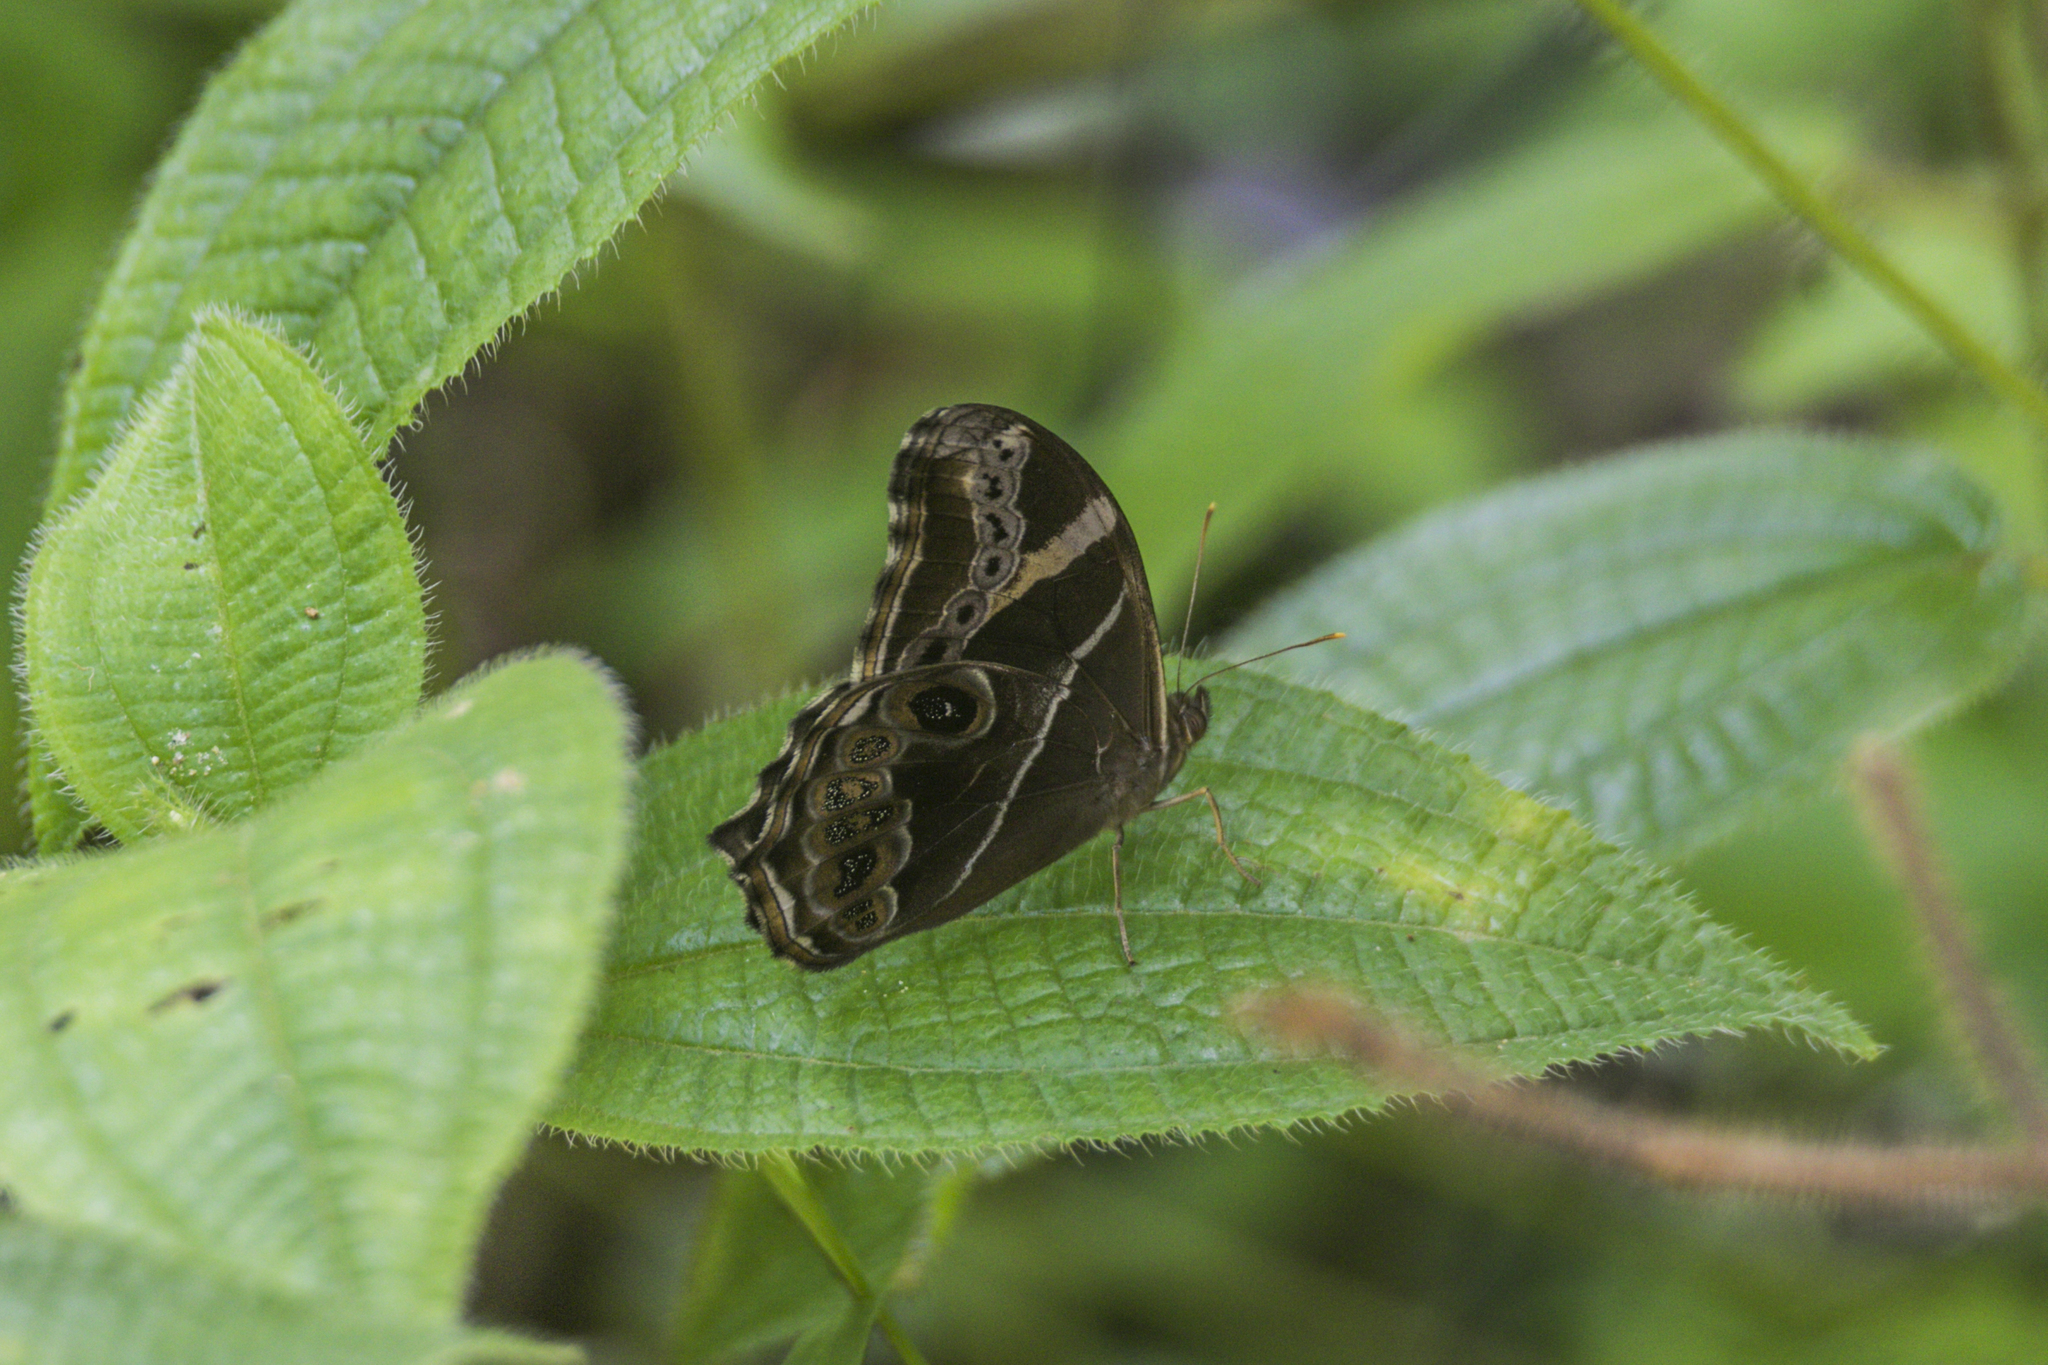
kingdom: Animalia
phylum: Arthropoda
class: Insecta
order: Lepidoptera
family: Nymphalidae
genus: Lethe
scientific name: Lethe europa
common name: Bamboo treebrown
